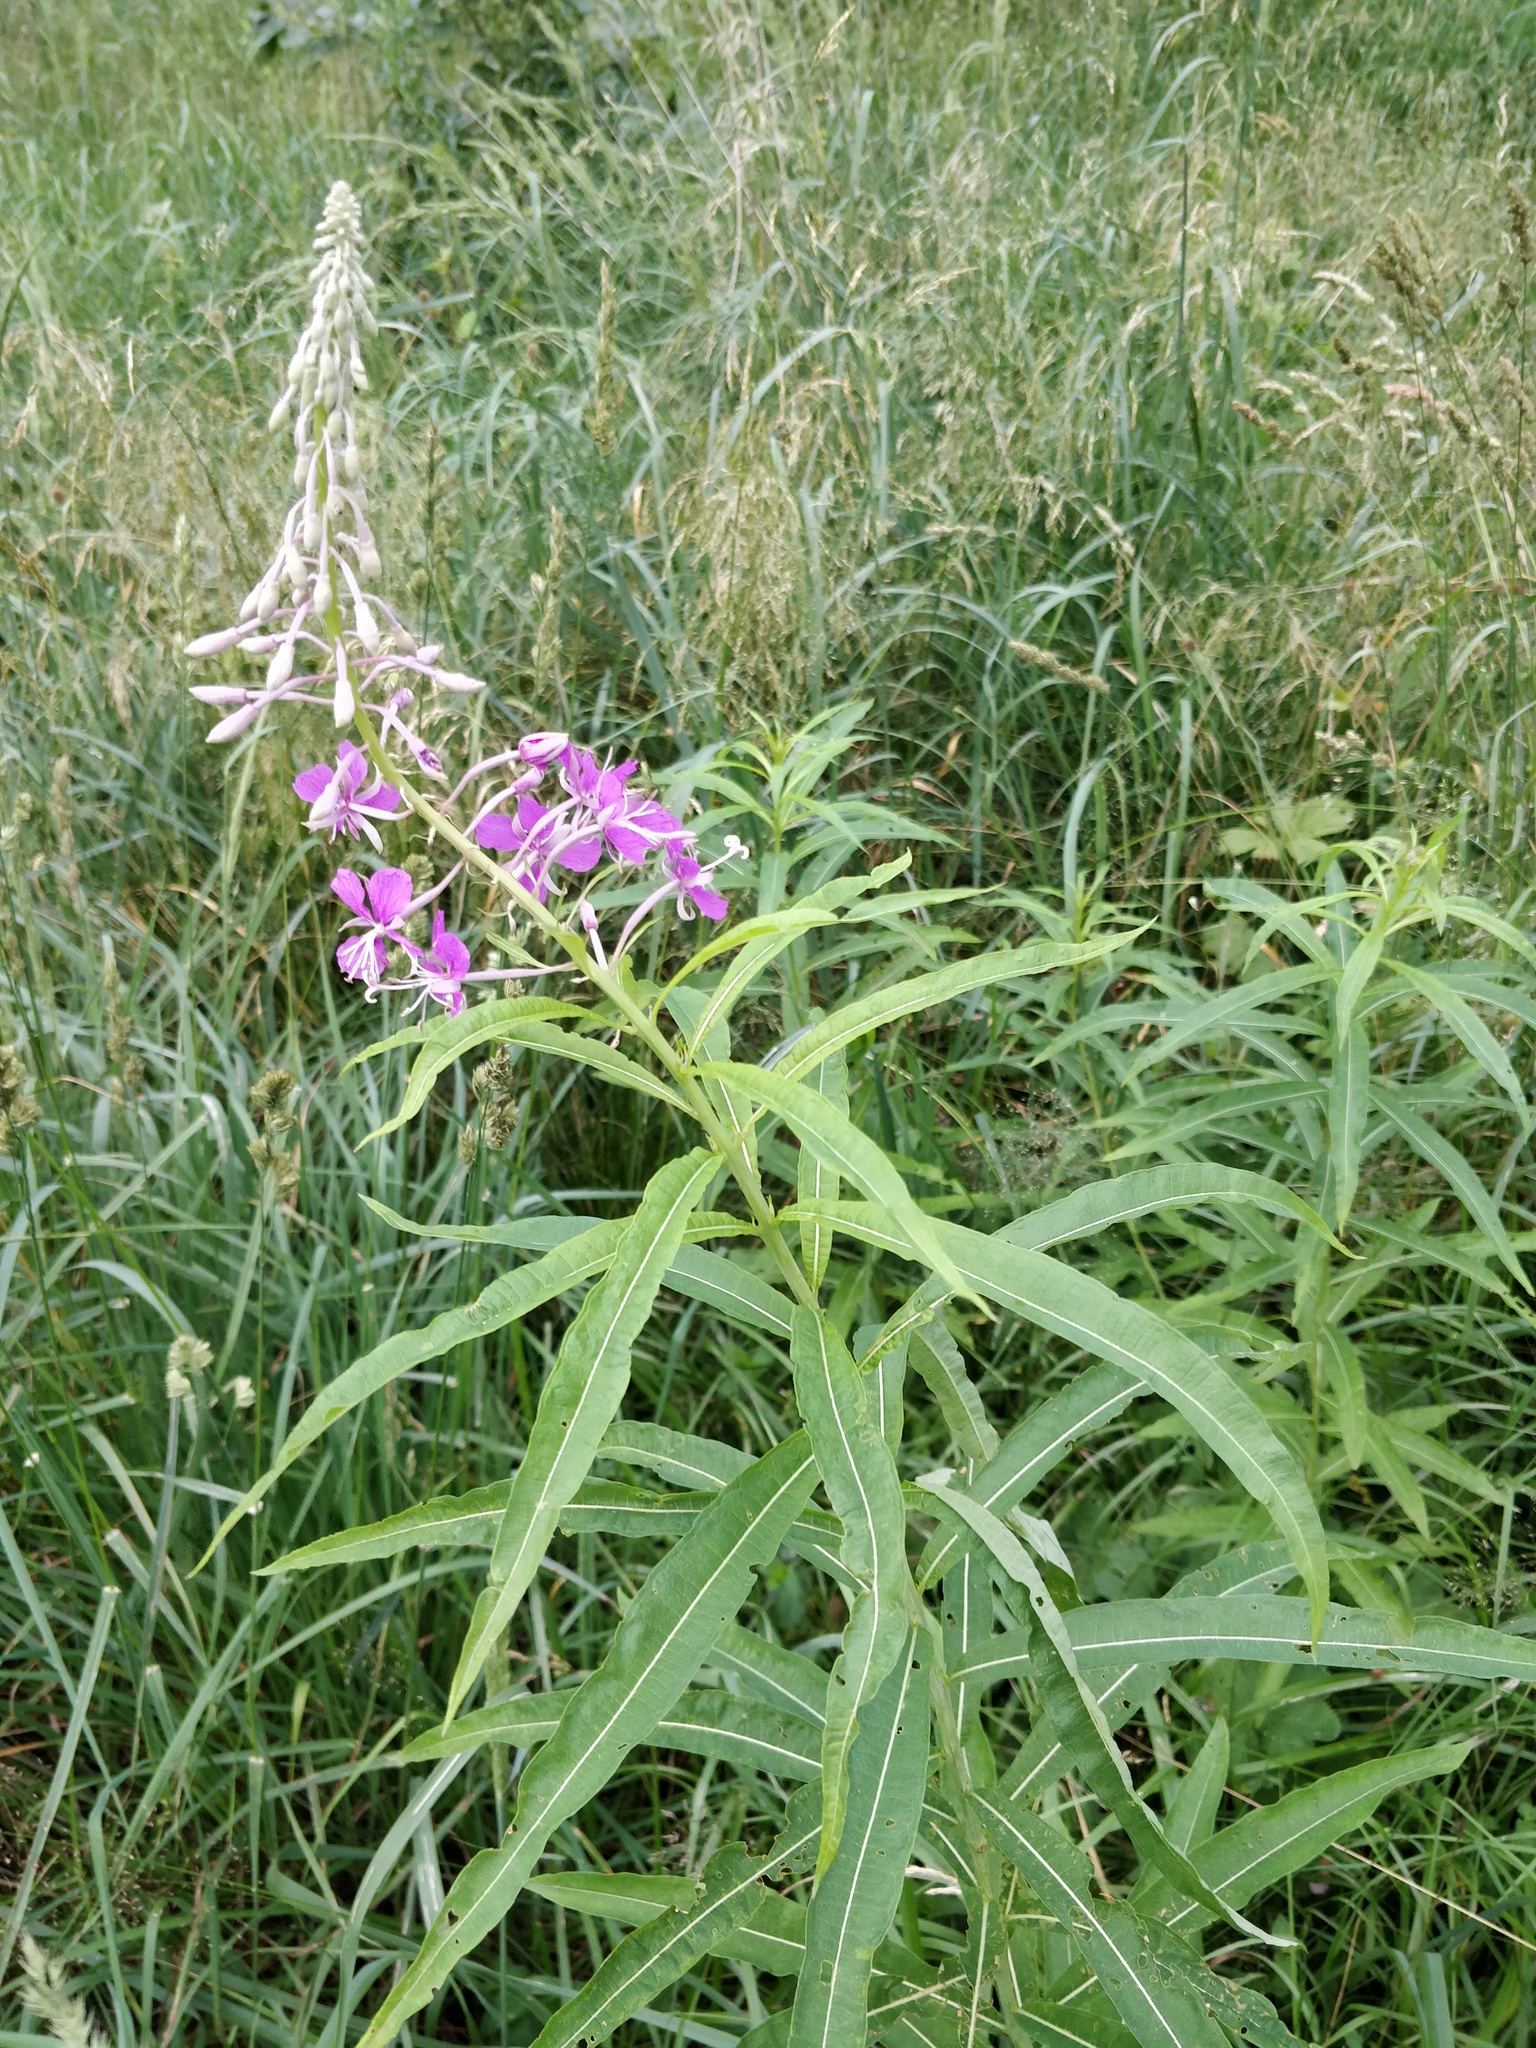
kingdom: Plantae
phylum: Tracheophyta
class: Magnoliopsida
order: Myrtales
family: Onagraceae
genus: Chamaenerion
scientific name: Chamaenerion angustifolium
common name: Fireweed
